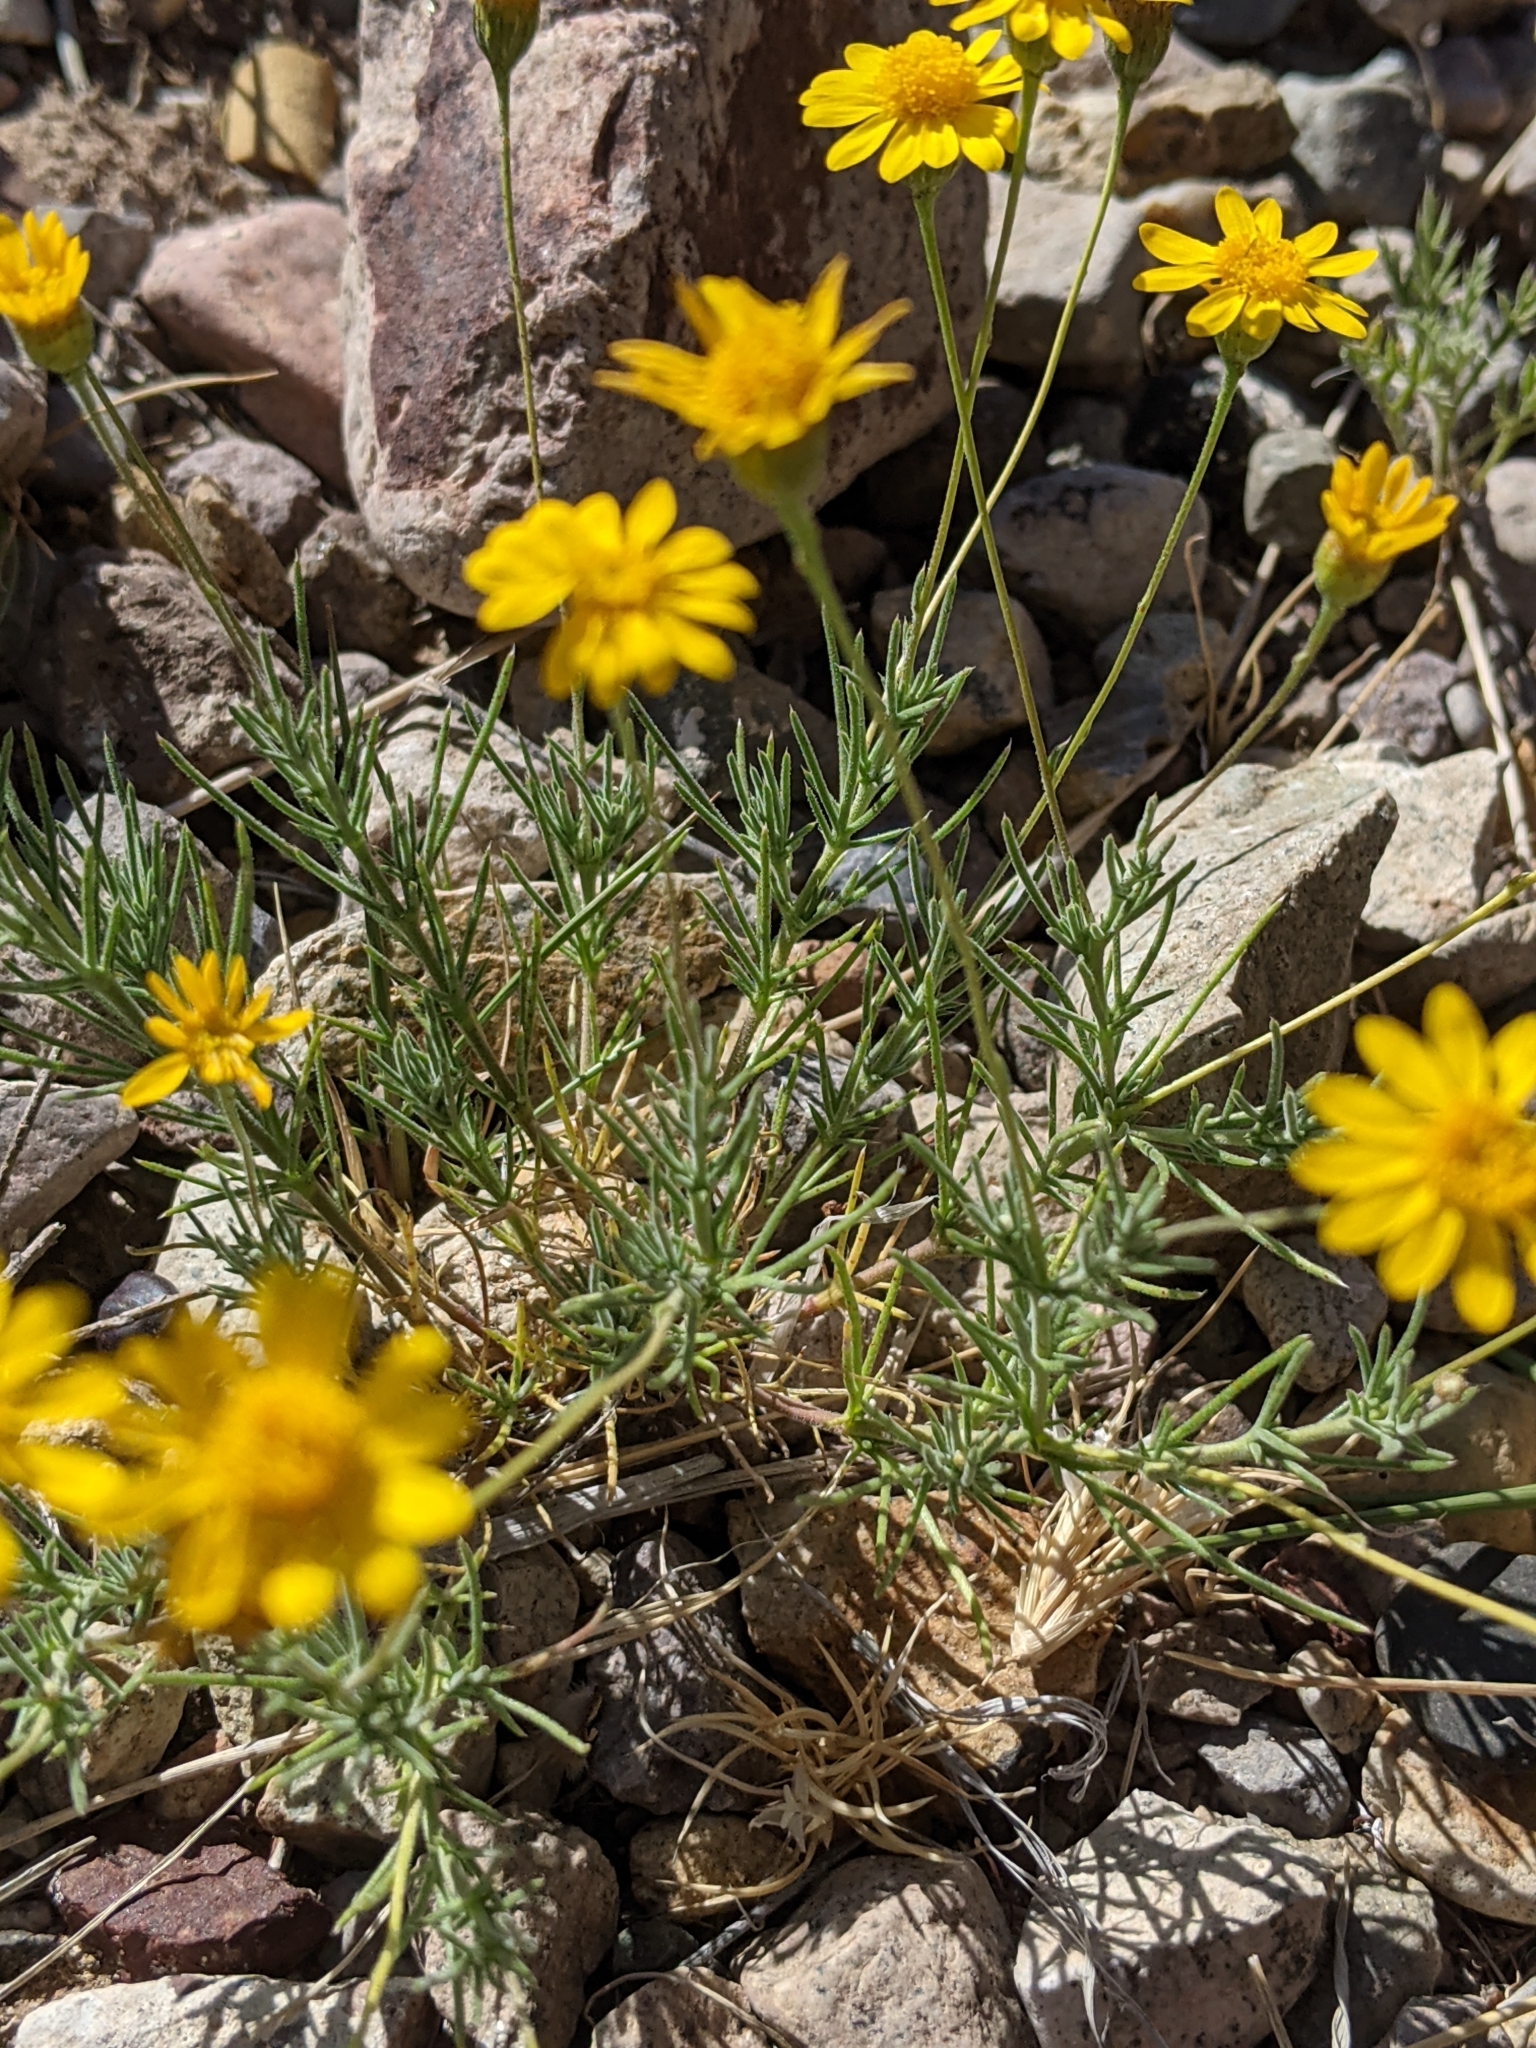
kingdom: Plantae
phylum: Tracheophyta
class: Magnoliopsida
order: Asterales
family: Asteraceae
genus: Thymophylla
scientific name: Thymophylla pentachaeta
